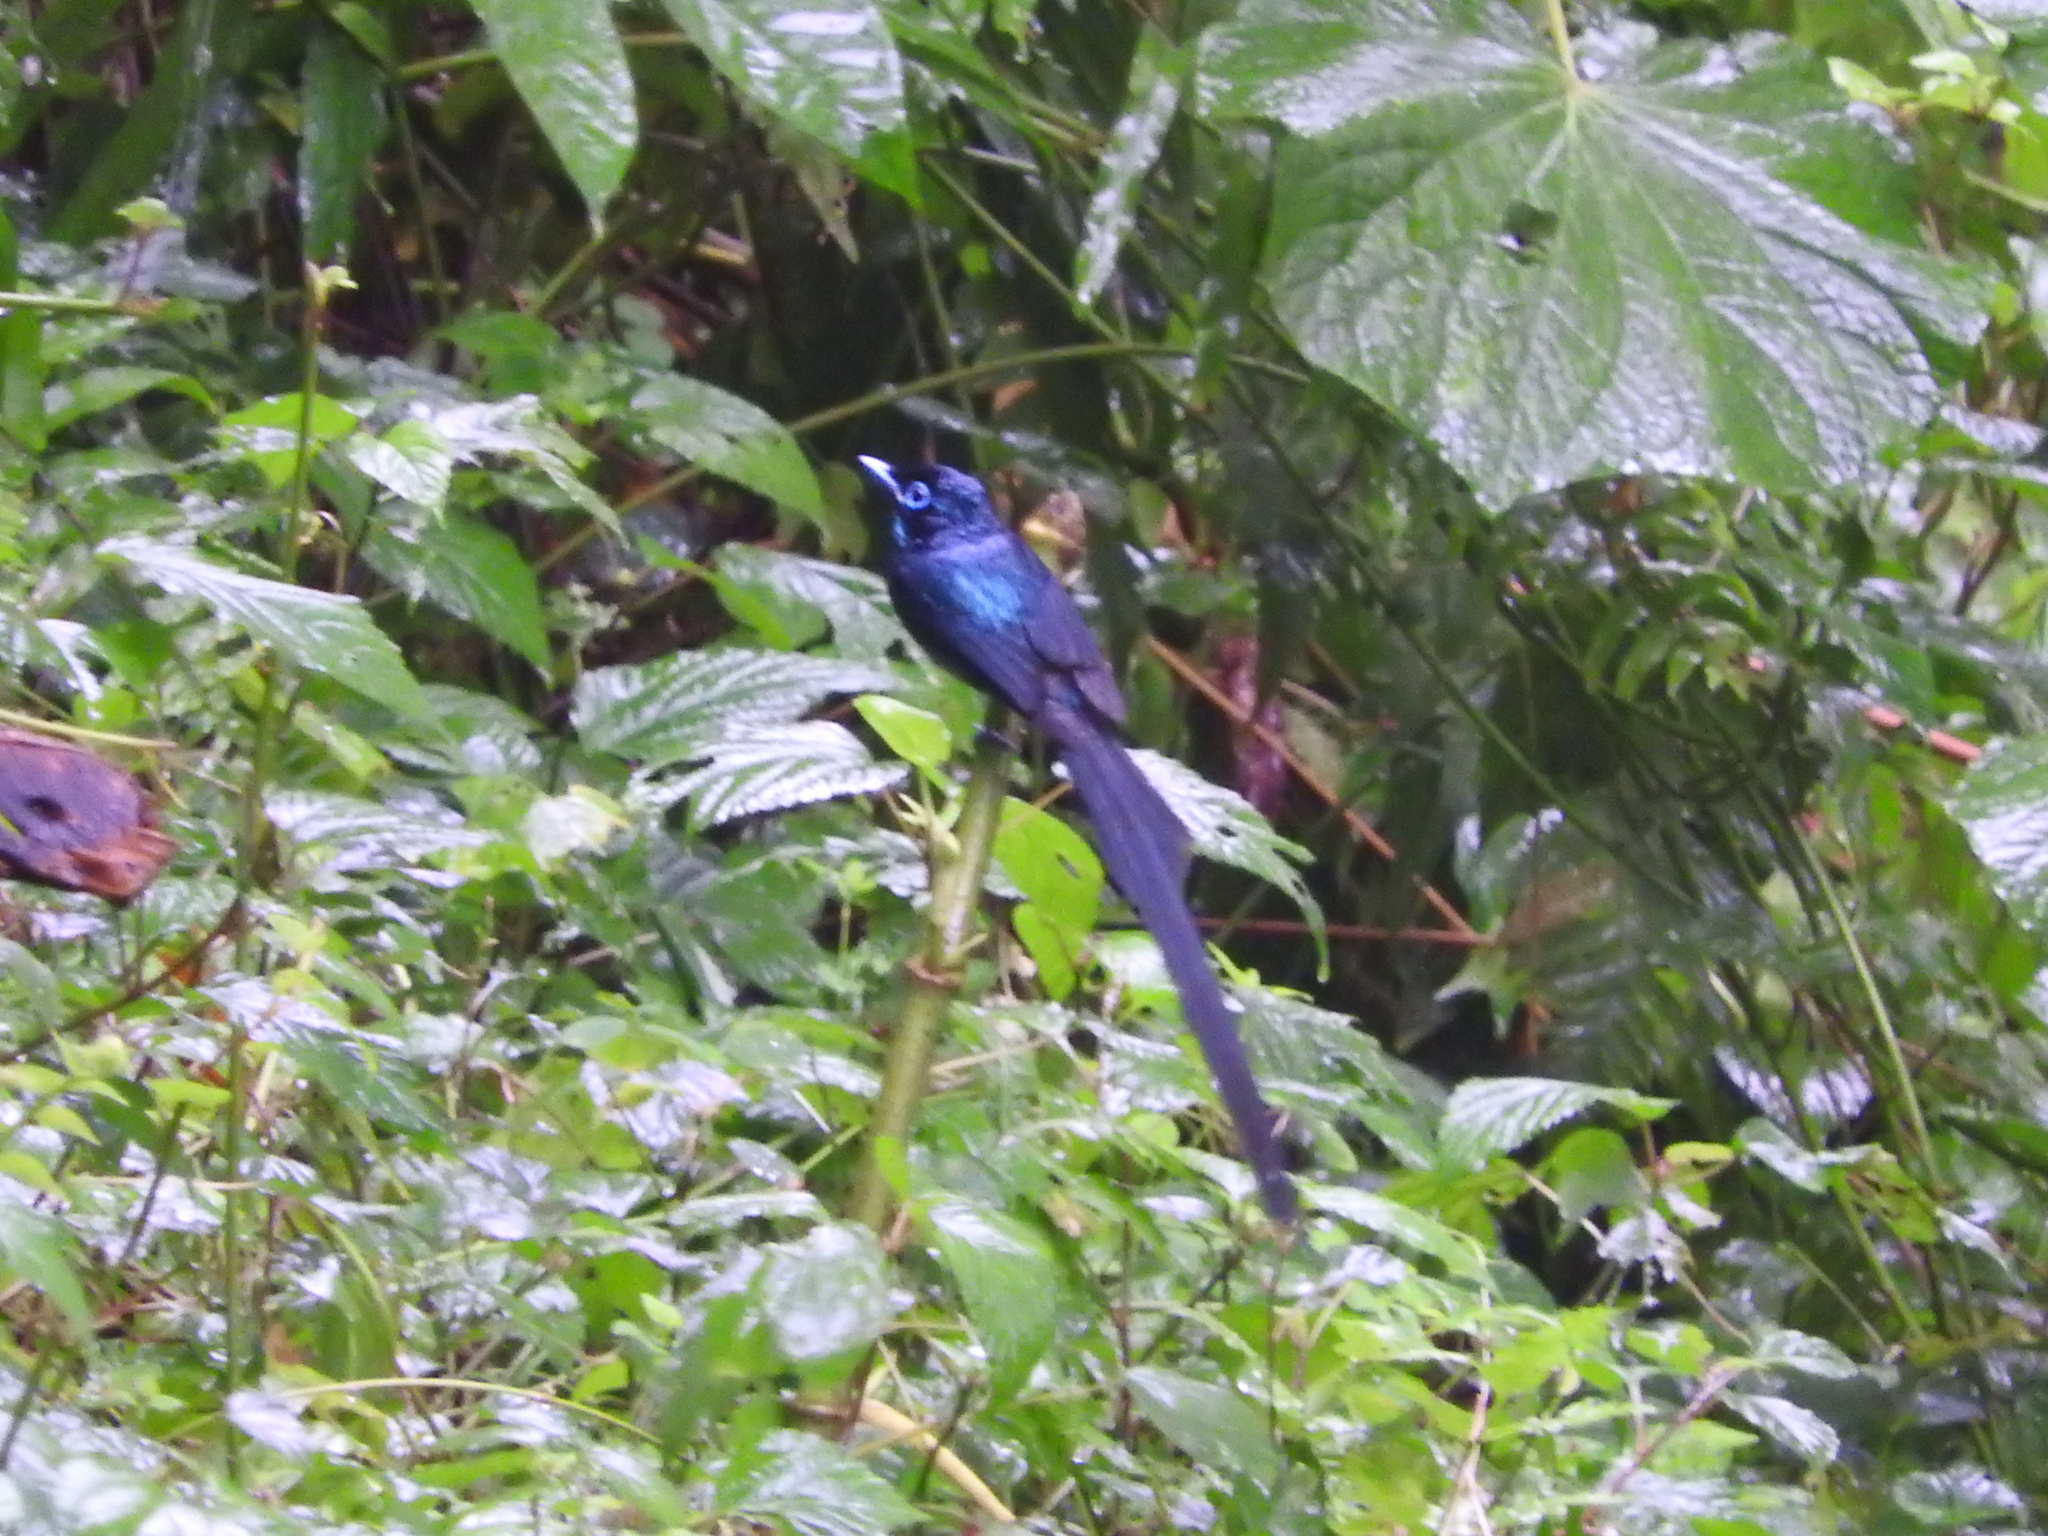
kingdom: Animalia
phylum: Chordata
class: Aves
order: Passeriformes
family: Monarchidae
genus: Terpsiphone
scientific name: Terpsiphone atrochalybeia
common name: Sao tome paradise flycatcher
